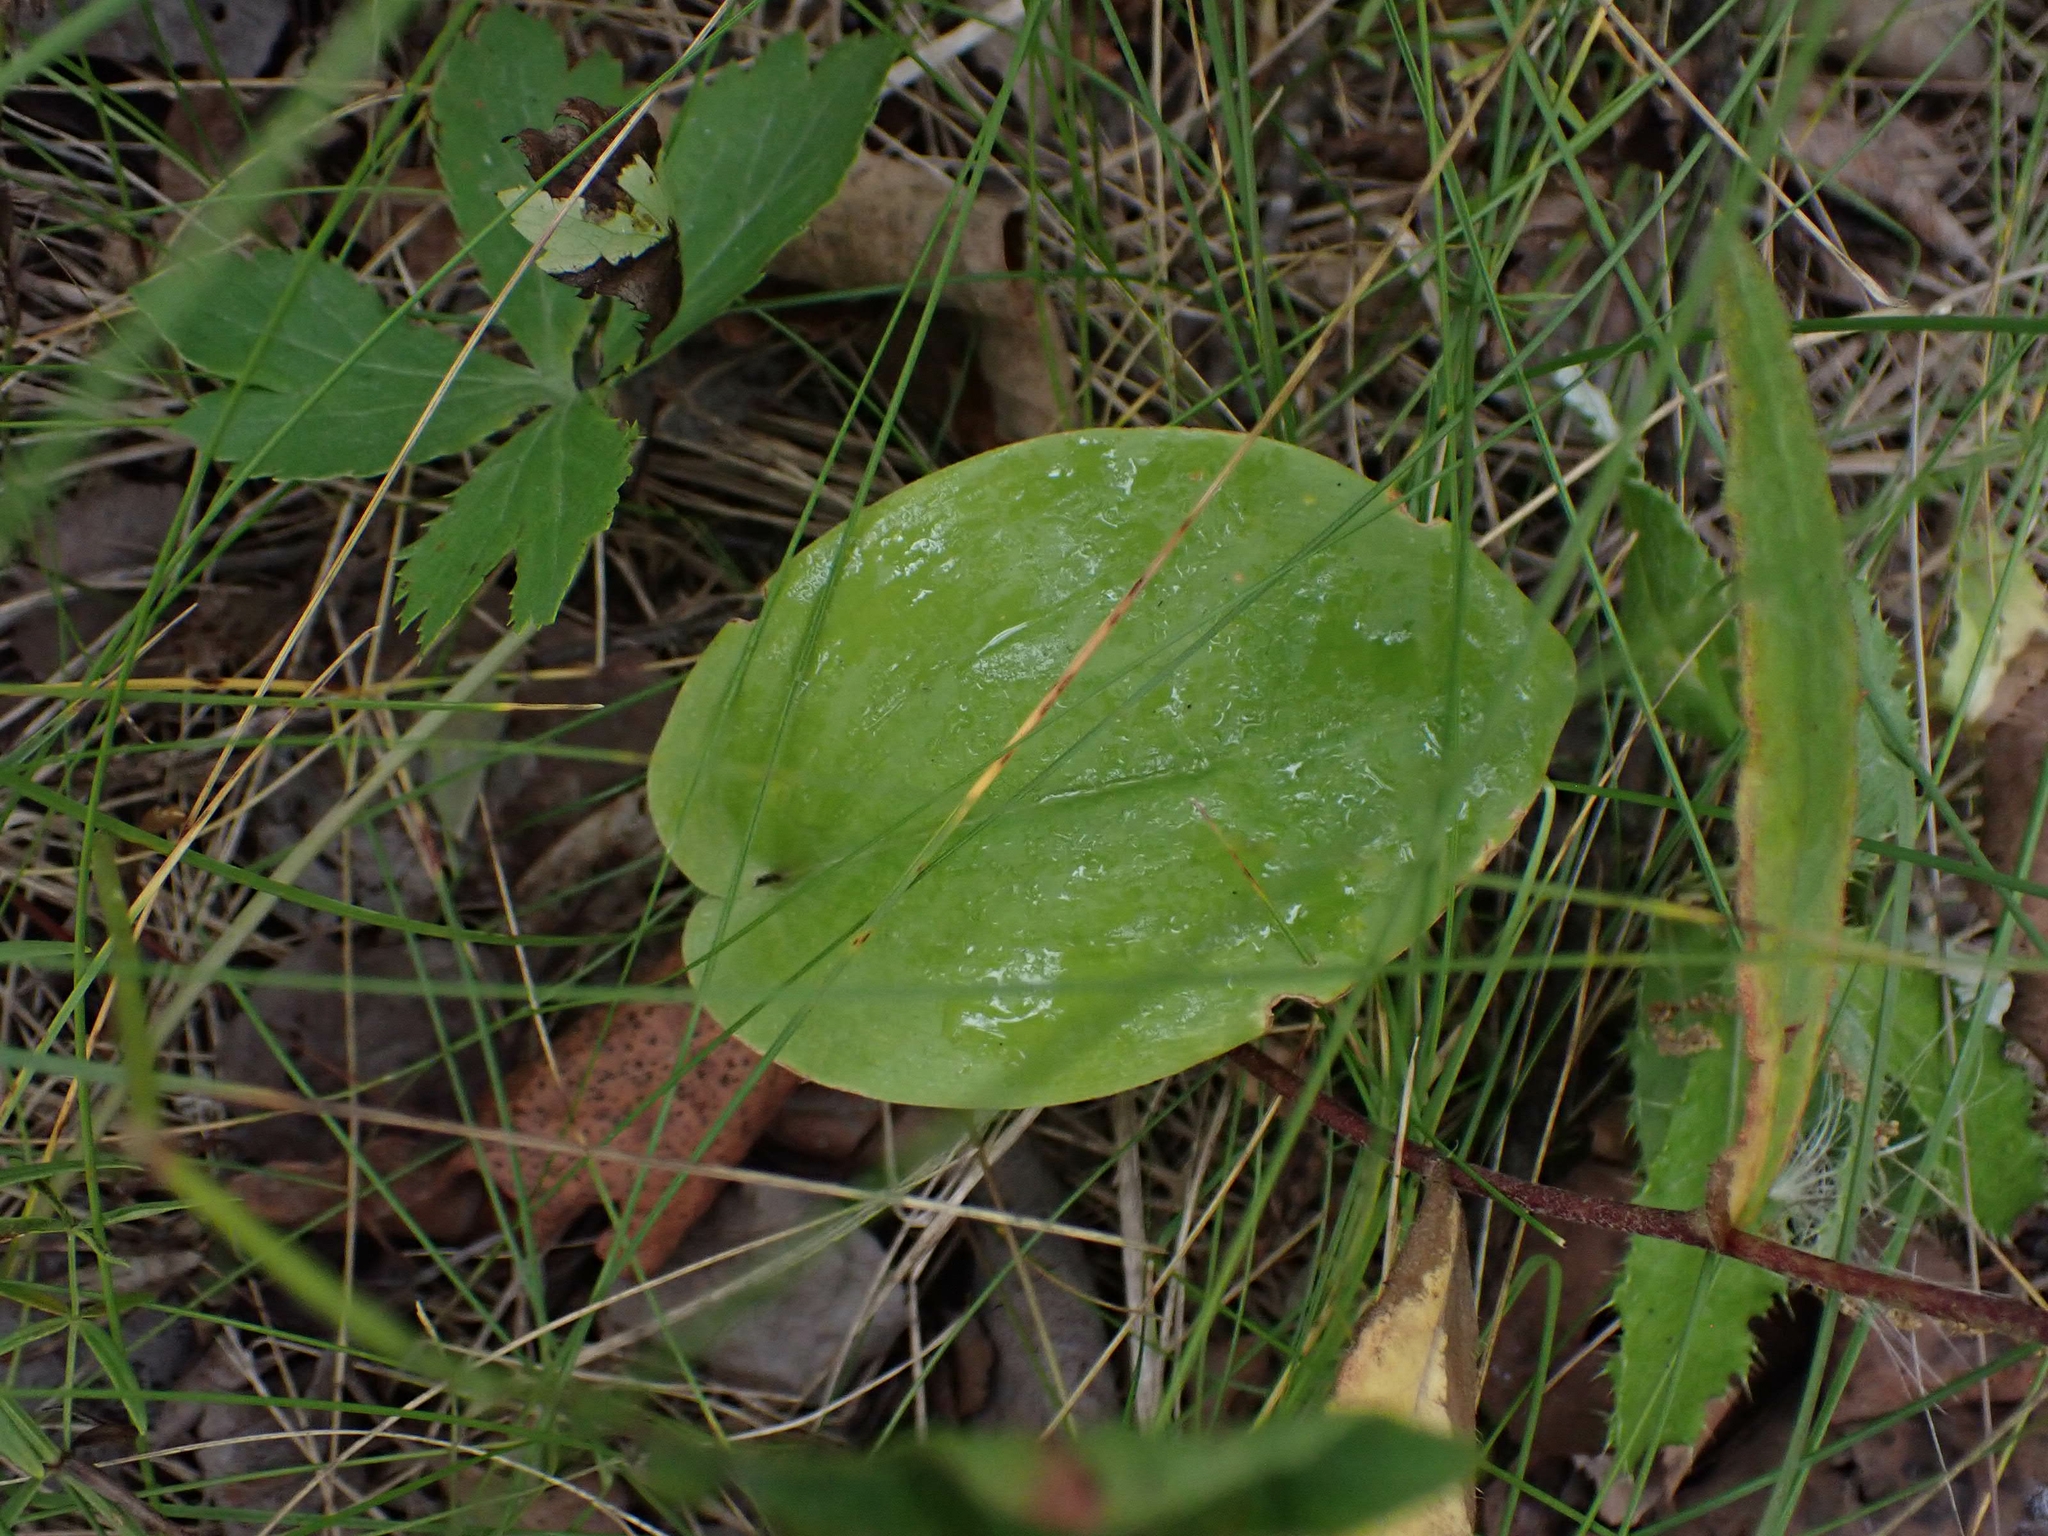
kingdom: Plantae
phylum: Tracheophyta
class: Liliopsida
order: Asparagales
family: Asparagaceae
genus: Maianthemum
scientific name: Maianthemum canadense
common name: False lily-of-the-valley
